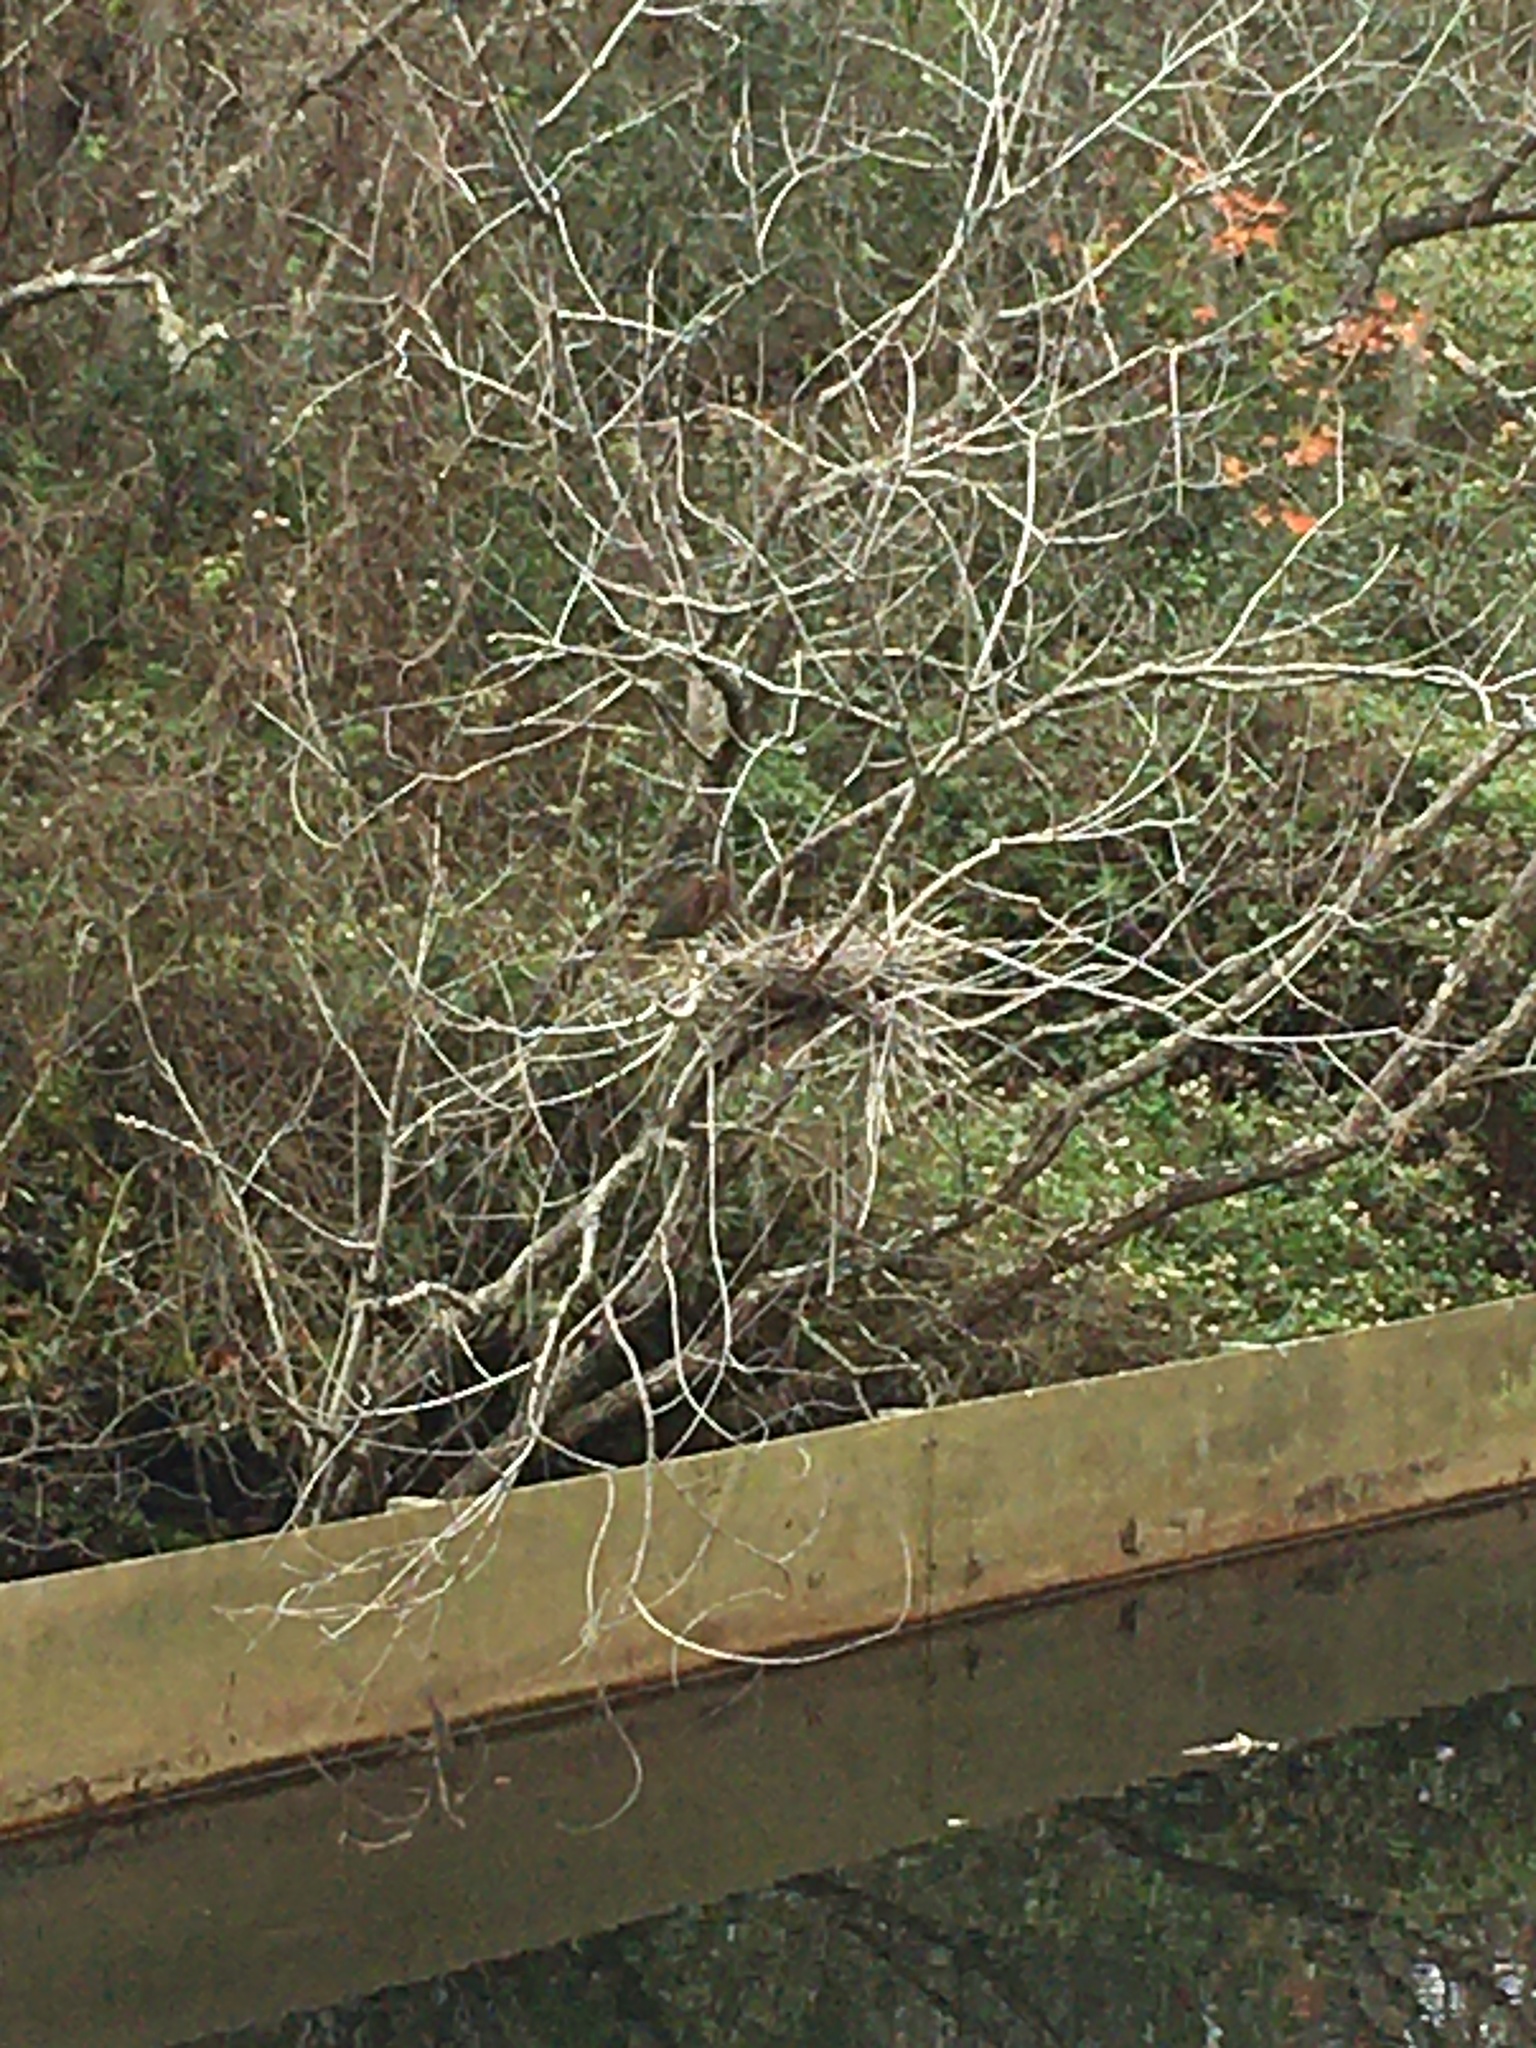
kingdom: Animalia
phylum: Chordata
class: Aves
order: Pelecaniformes
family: Ardeidae
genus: Butorides
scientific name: Butorides virescens
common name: Green heron
